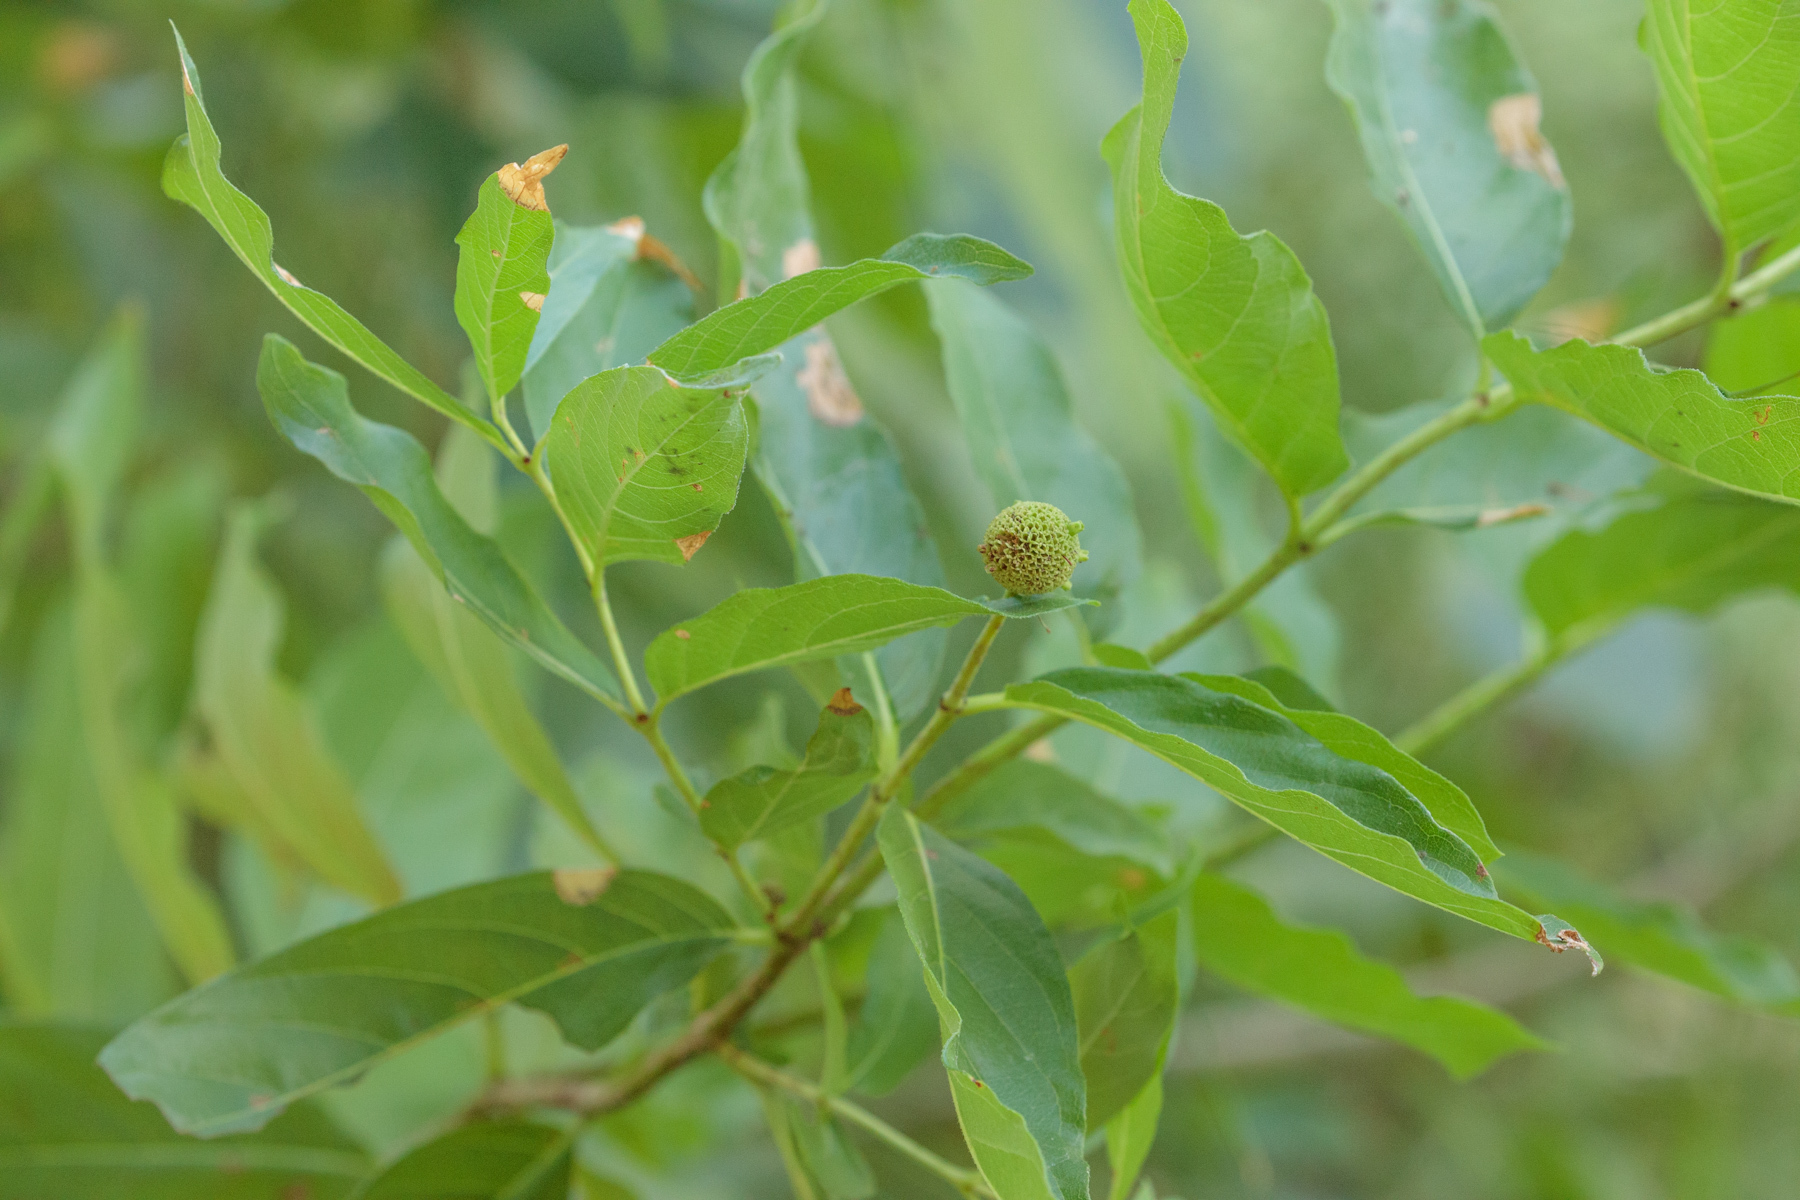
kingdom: Plantae
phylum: Tracheophyta
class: Magnoliopsida
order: Gentianales
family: Rubiaceae
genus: Cephalanthus
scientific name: Cephalanthus occidentalis
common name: Button-willow
